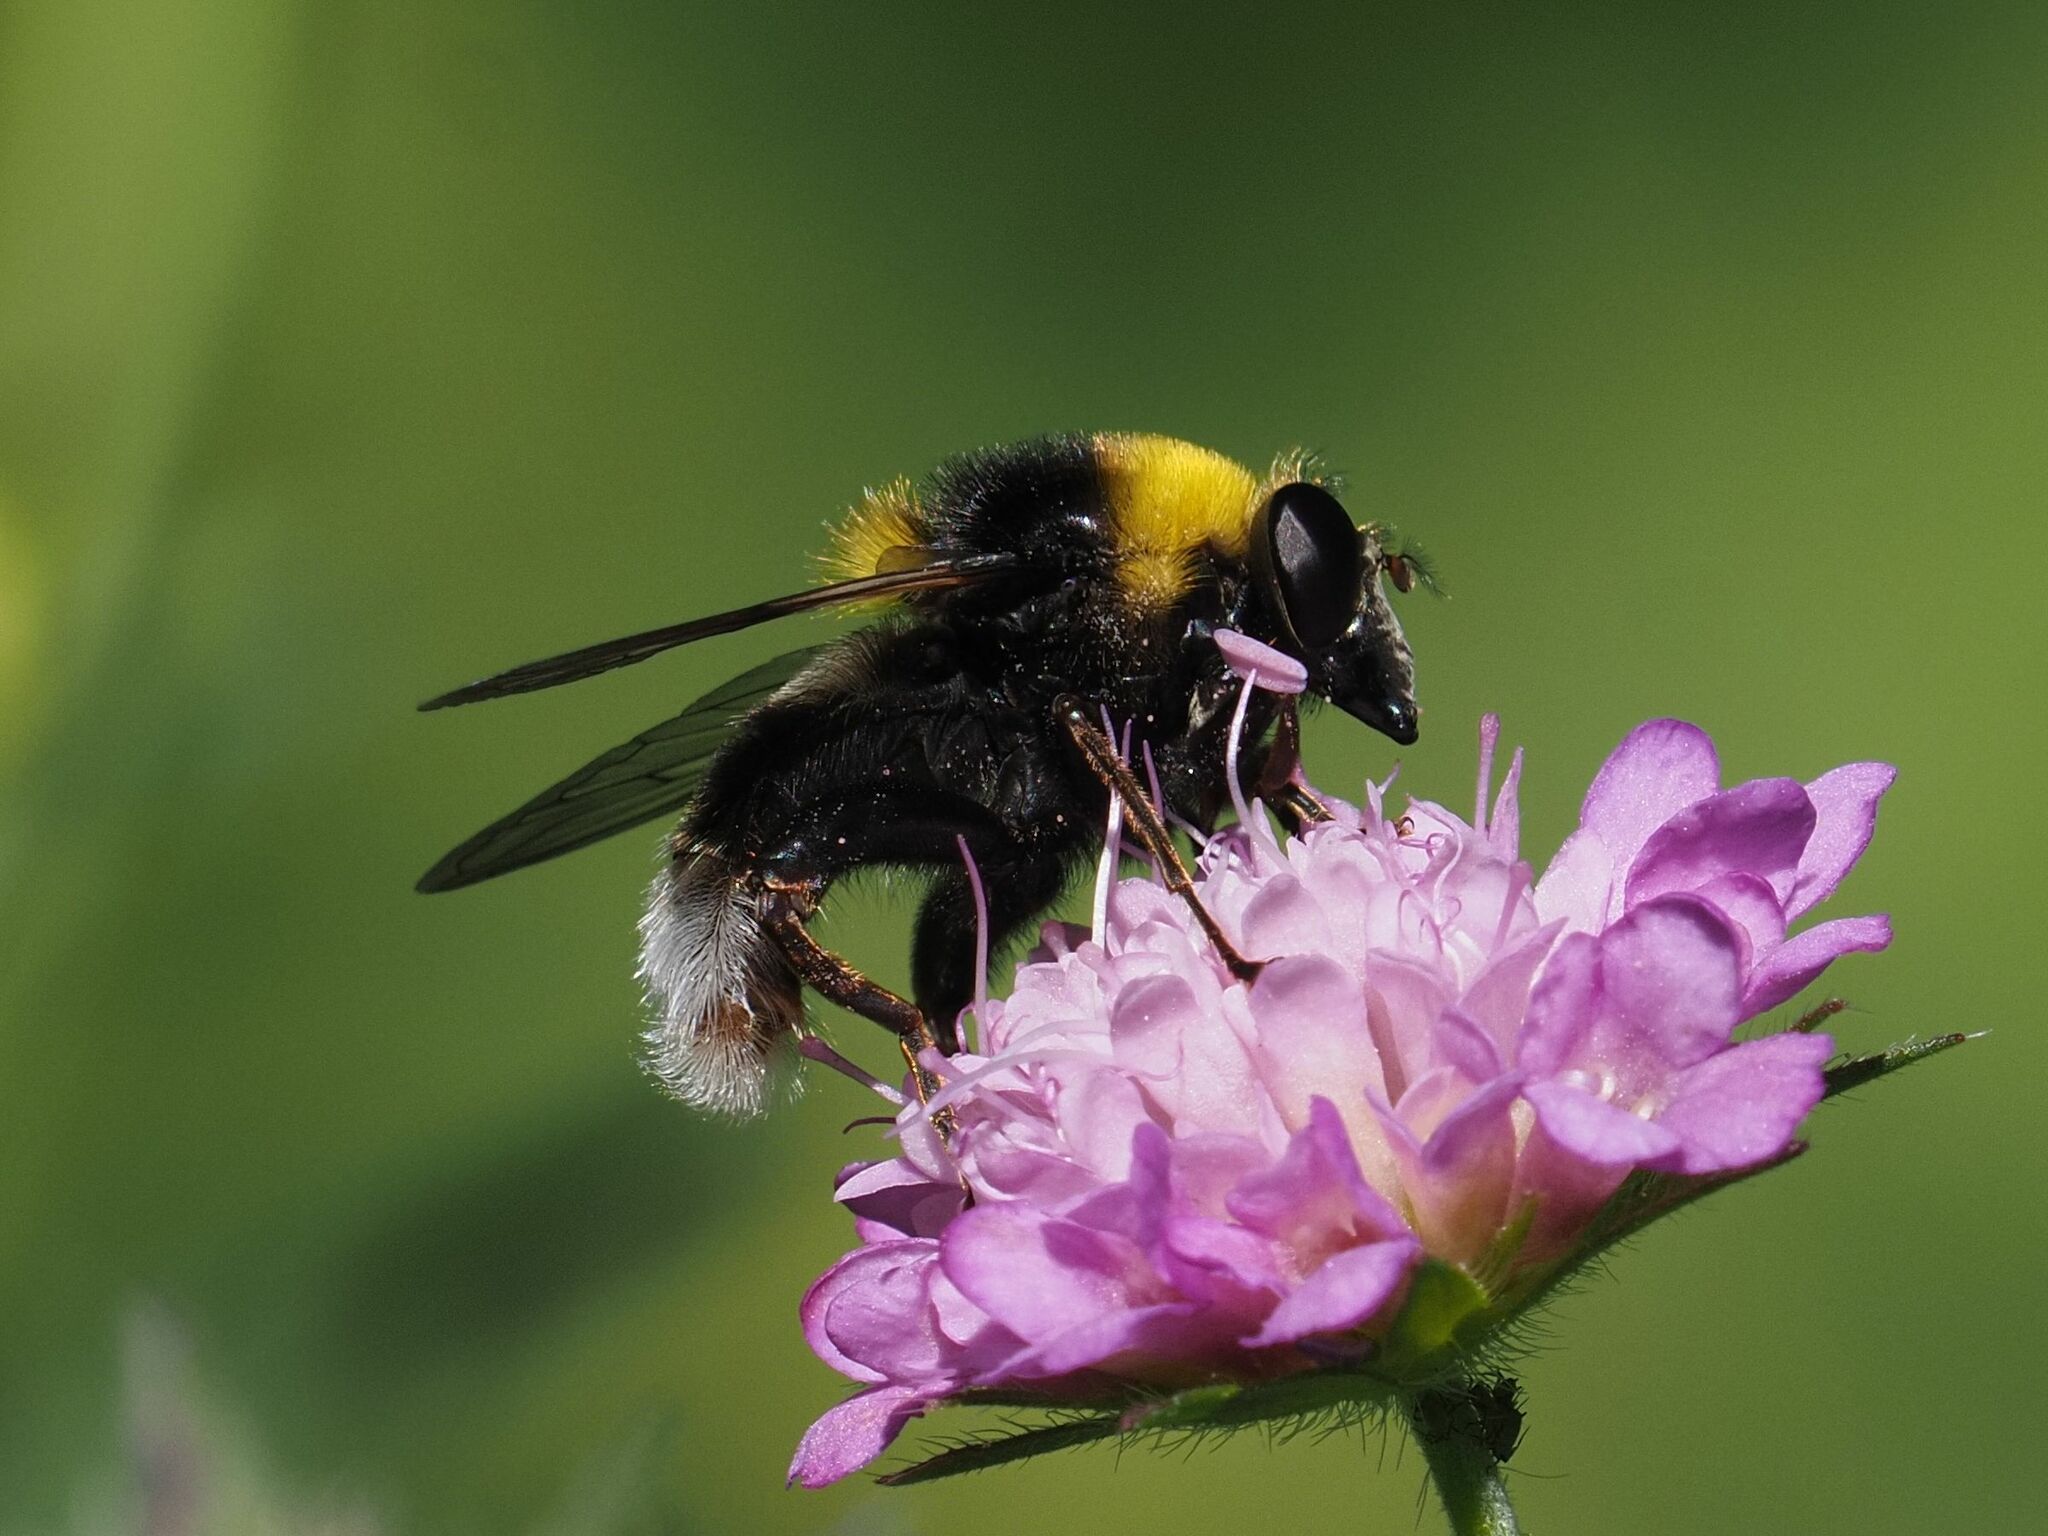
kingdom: Animalia
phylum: Arthropoda
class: Insecta
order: Diptera
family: Syrphidae
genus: Sericomyia
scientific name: Sericomyia bombiformis
